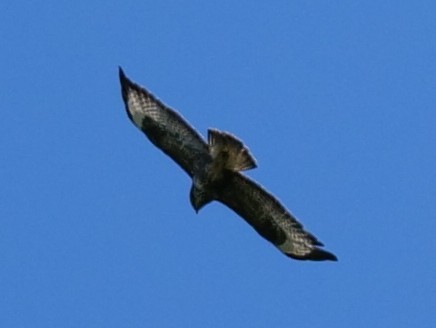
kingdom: Animalia
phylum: Chordata
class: Aves
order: Accipitriformes
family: Accipitridae
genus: Buteo
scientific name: Buteo buteo
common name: Common buzzard
